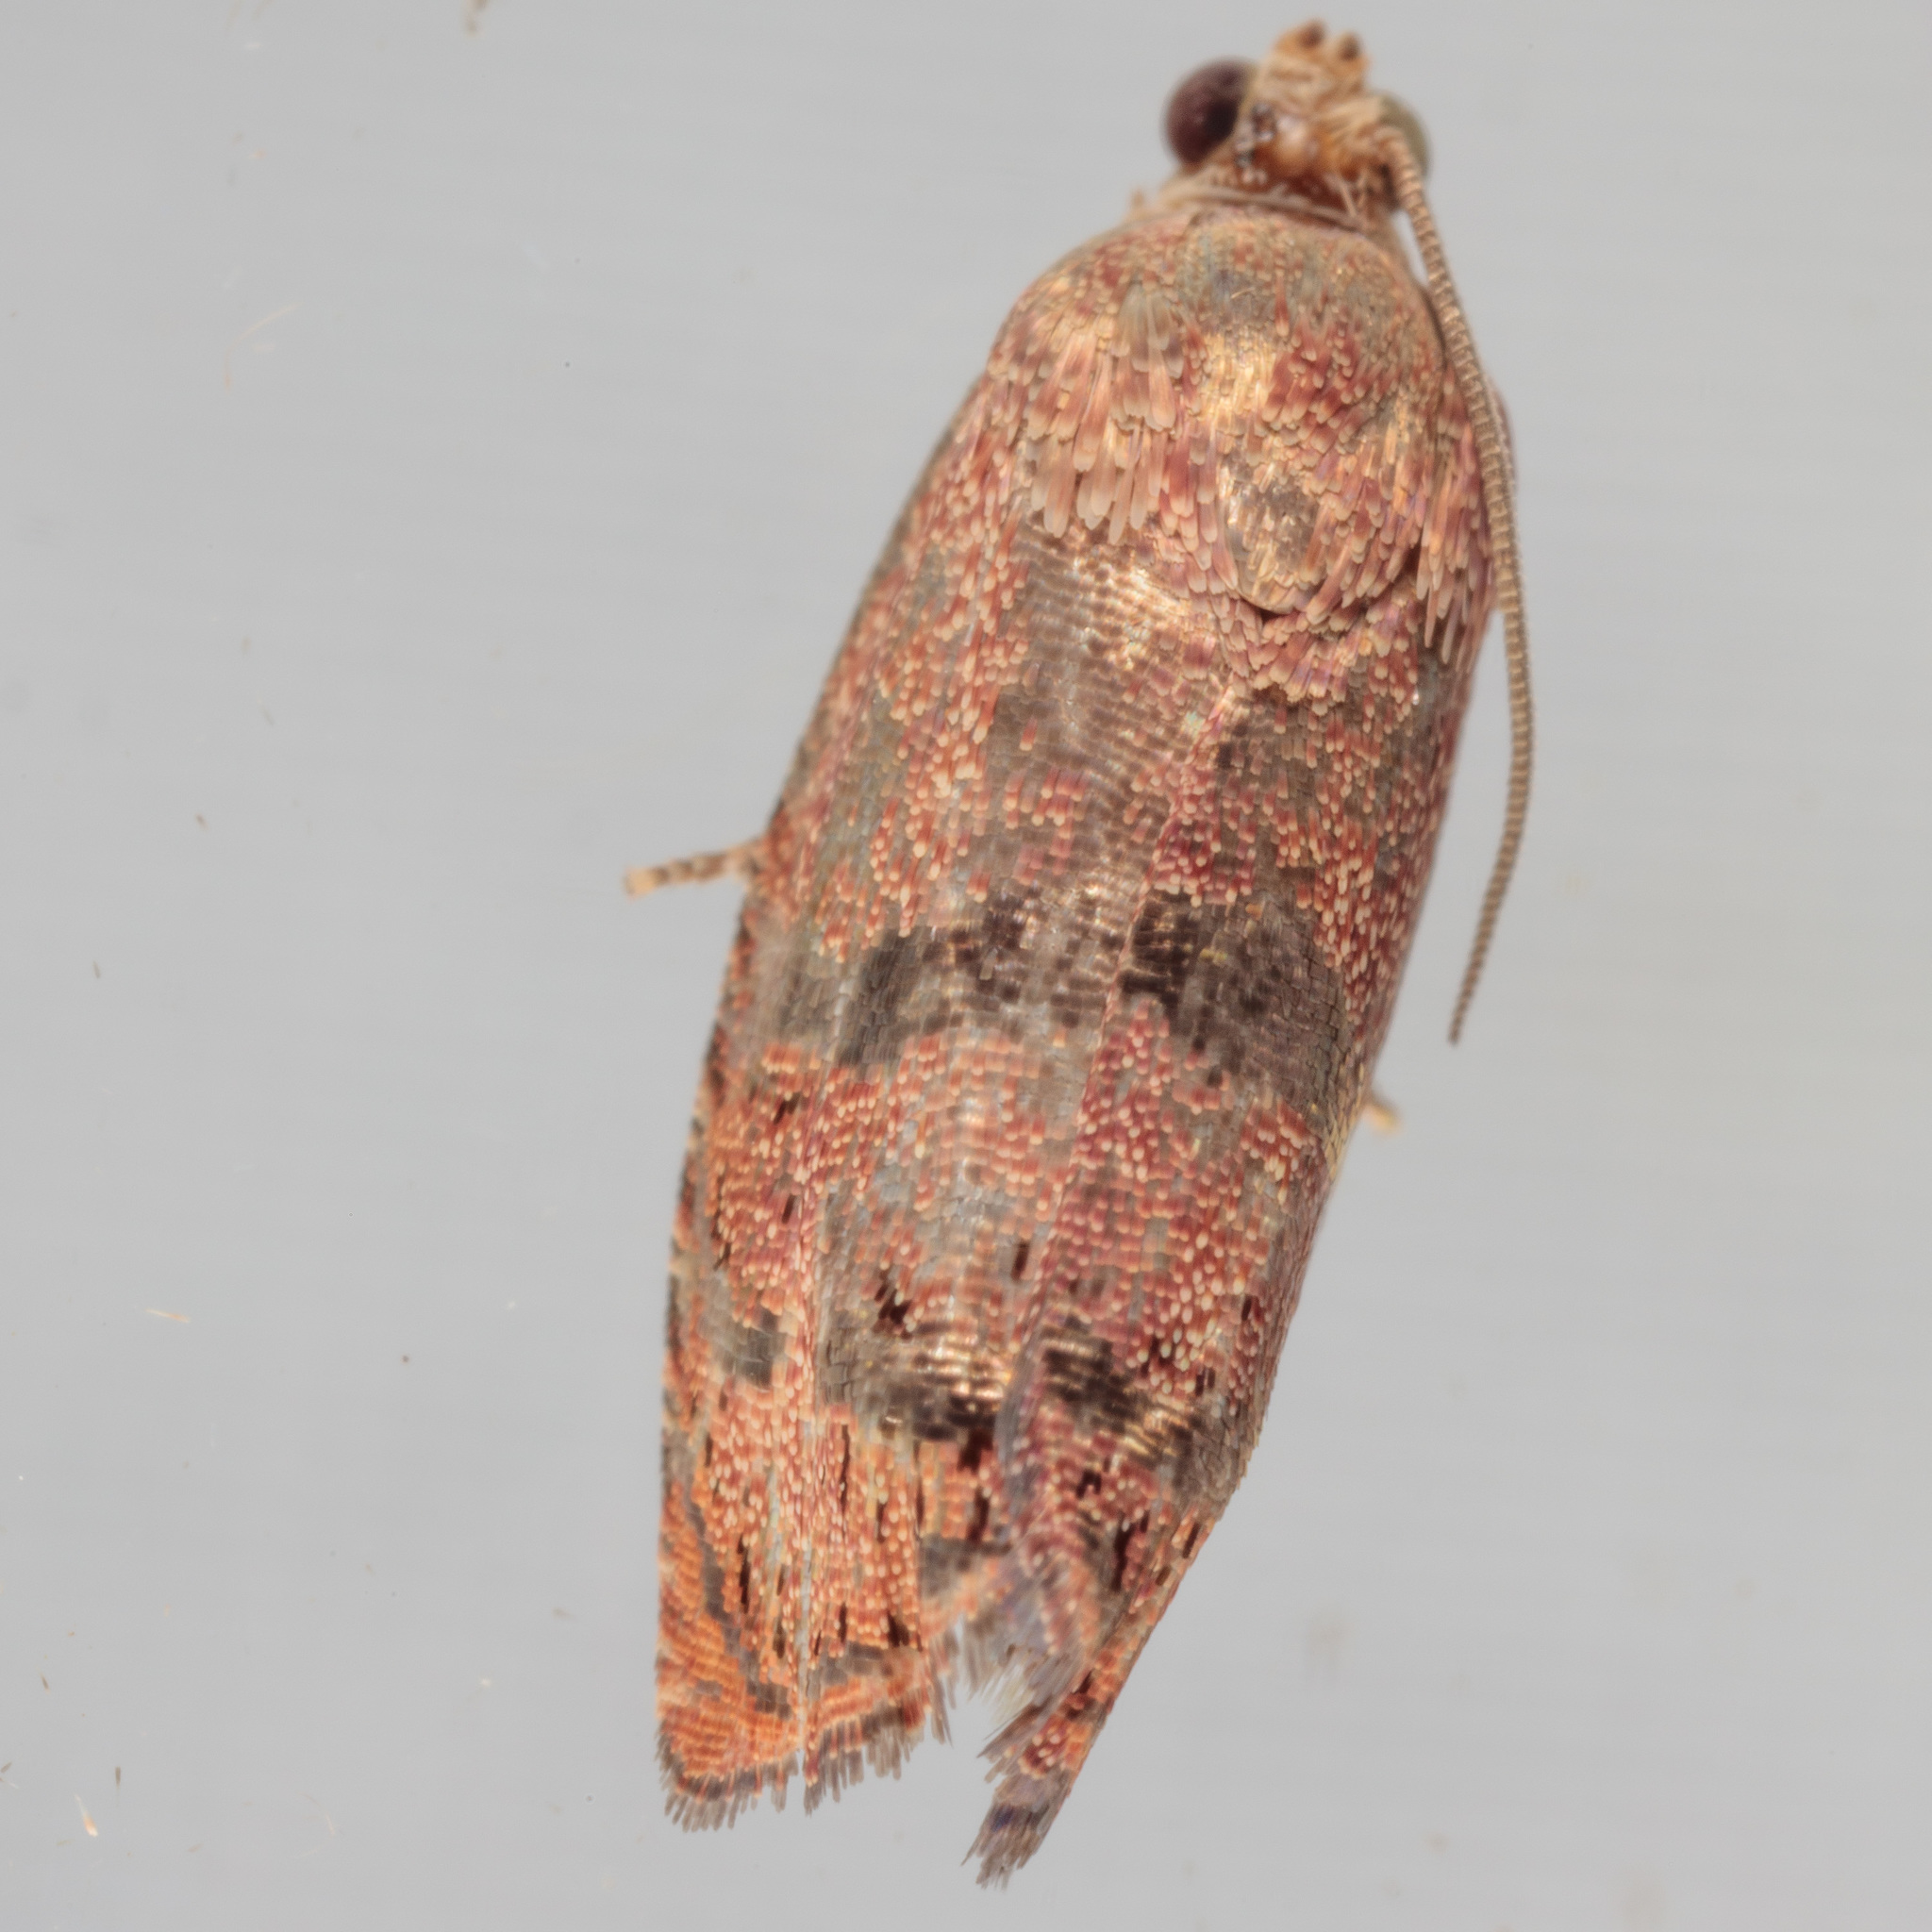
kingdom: Animalia
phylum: Arthropoda
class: Insecta
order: Lepidoptera
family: Tortricidae
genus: Cydia
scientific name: Cydia latiferreana
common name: Filbertworm moth
